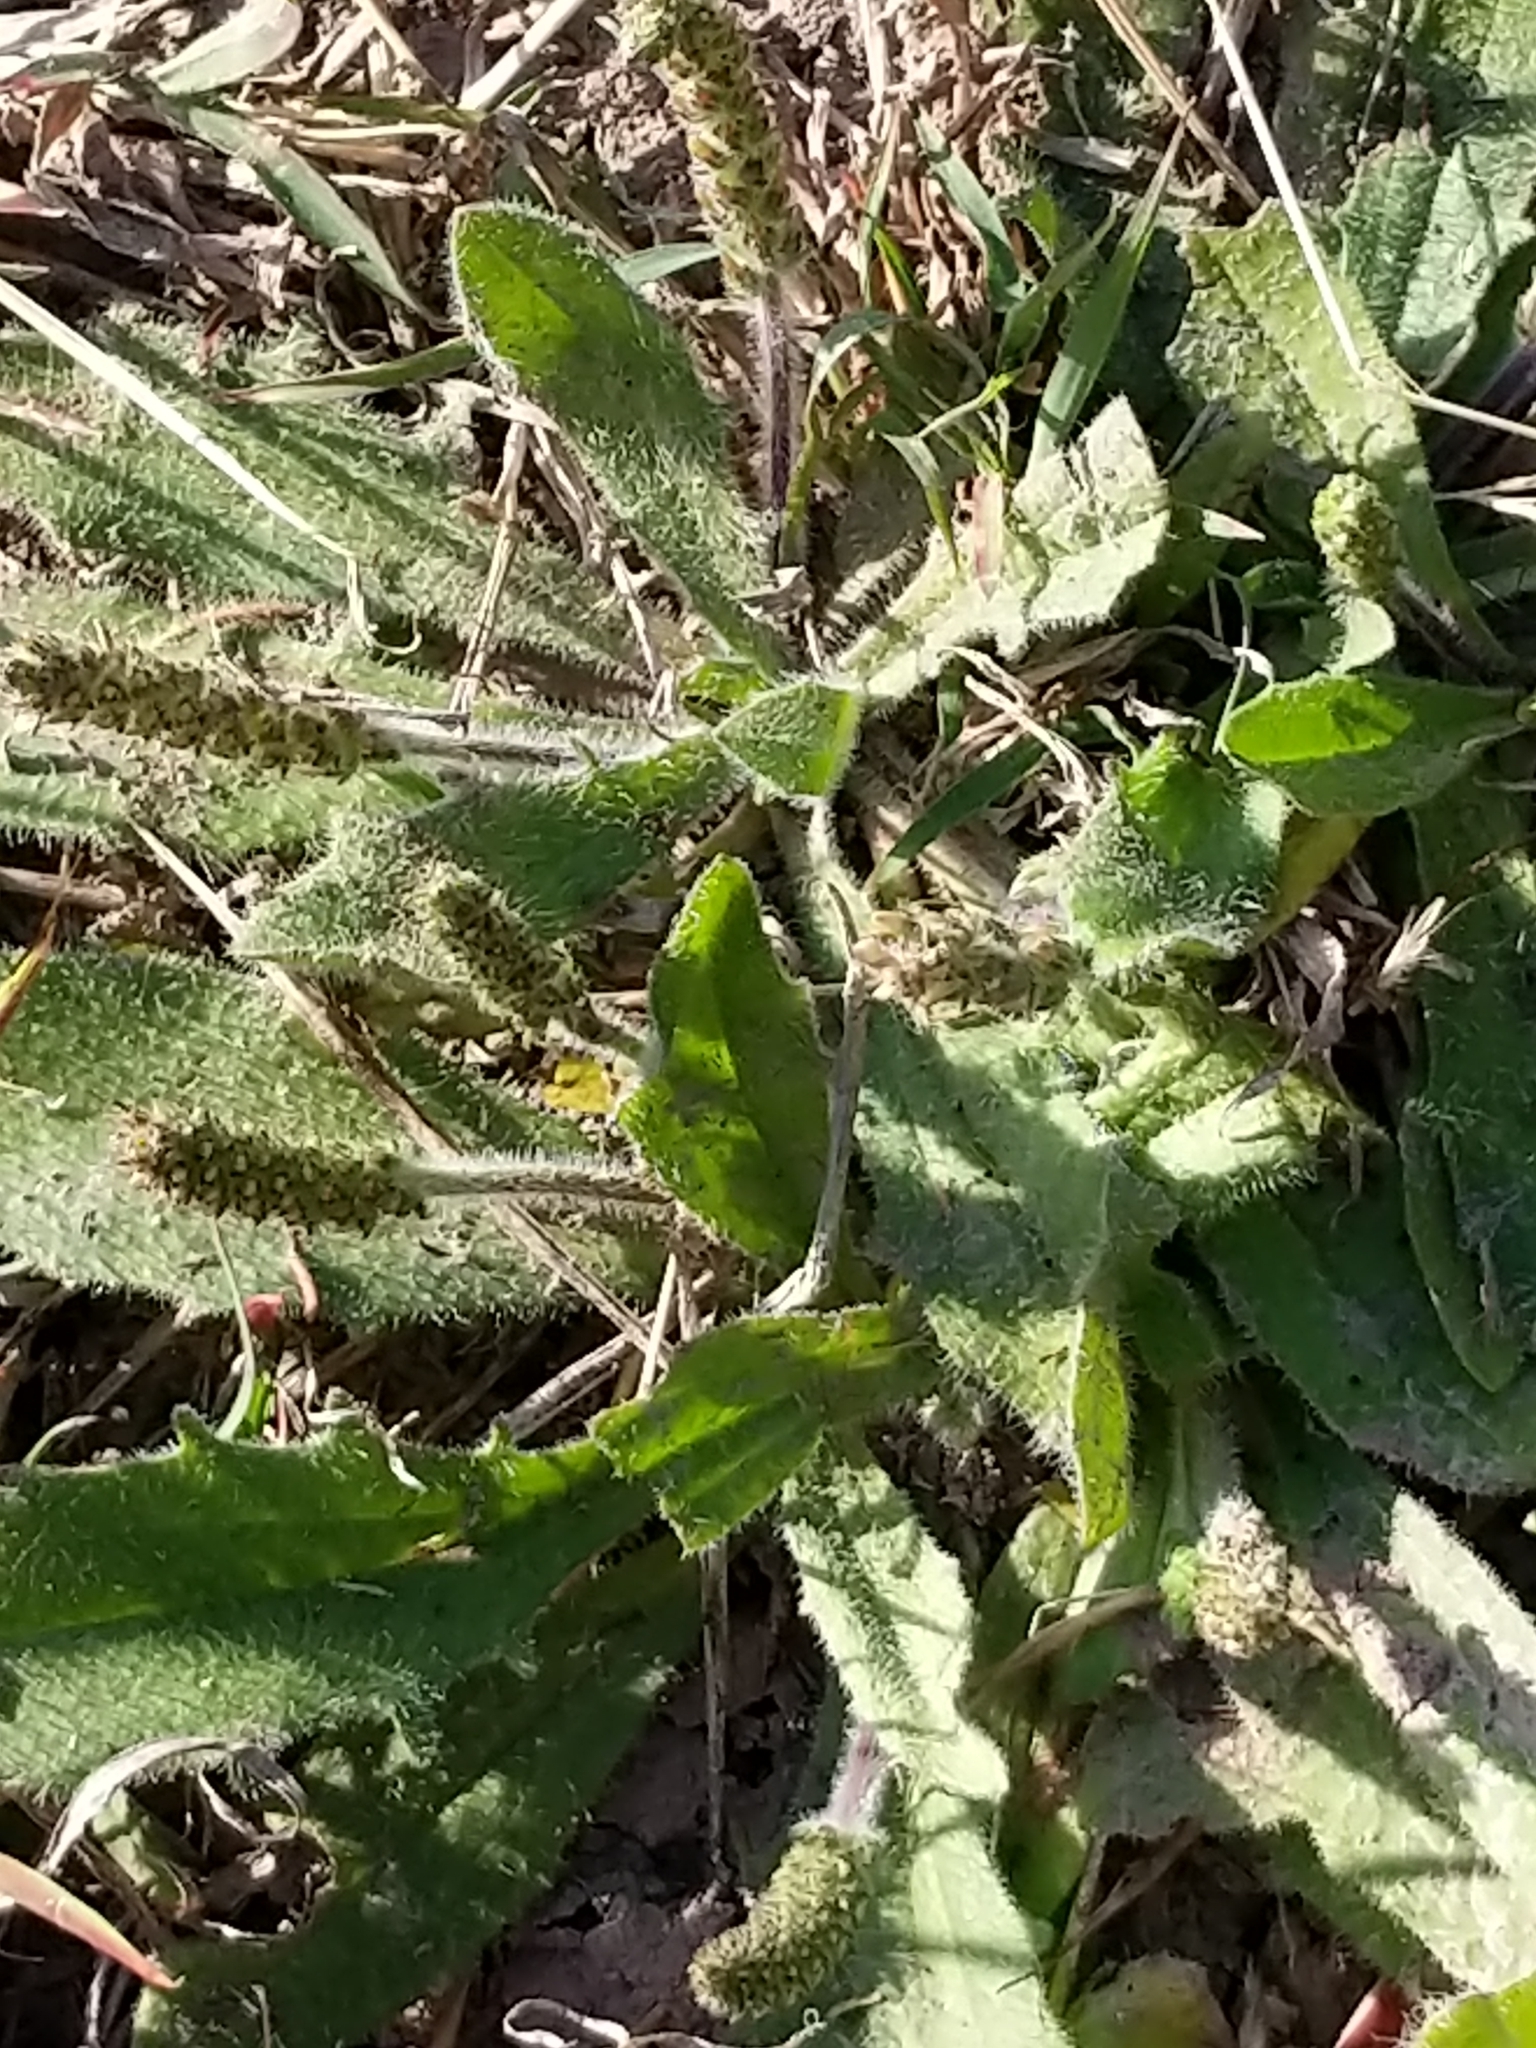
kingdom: Plantae
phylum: Tracheophyta
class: Magnoliopsida
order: Lamiales
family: Plantaginaceae
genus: Plantago
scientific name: Plantago rhodosperma
